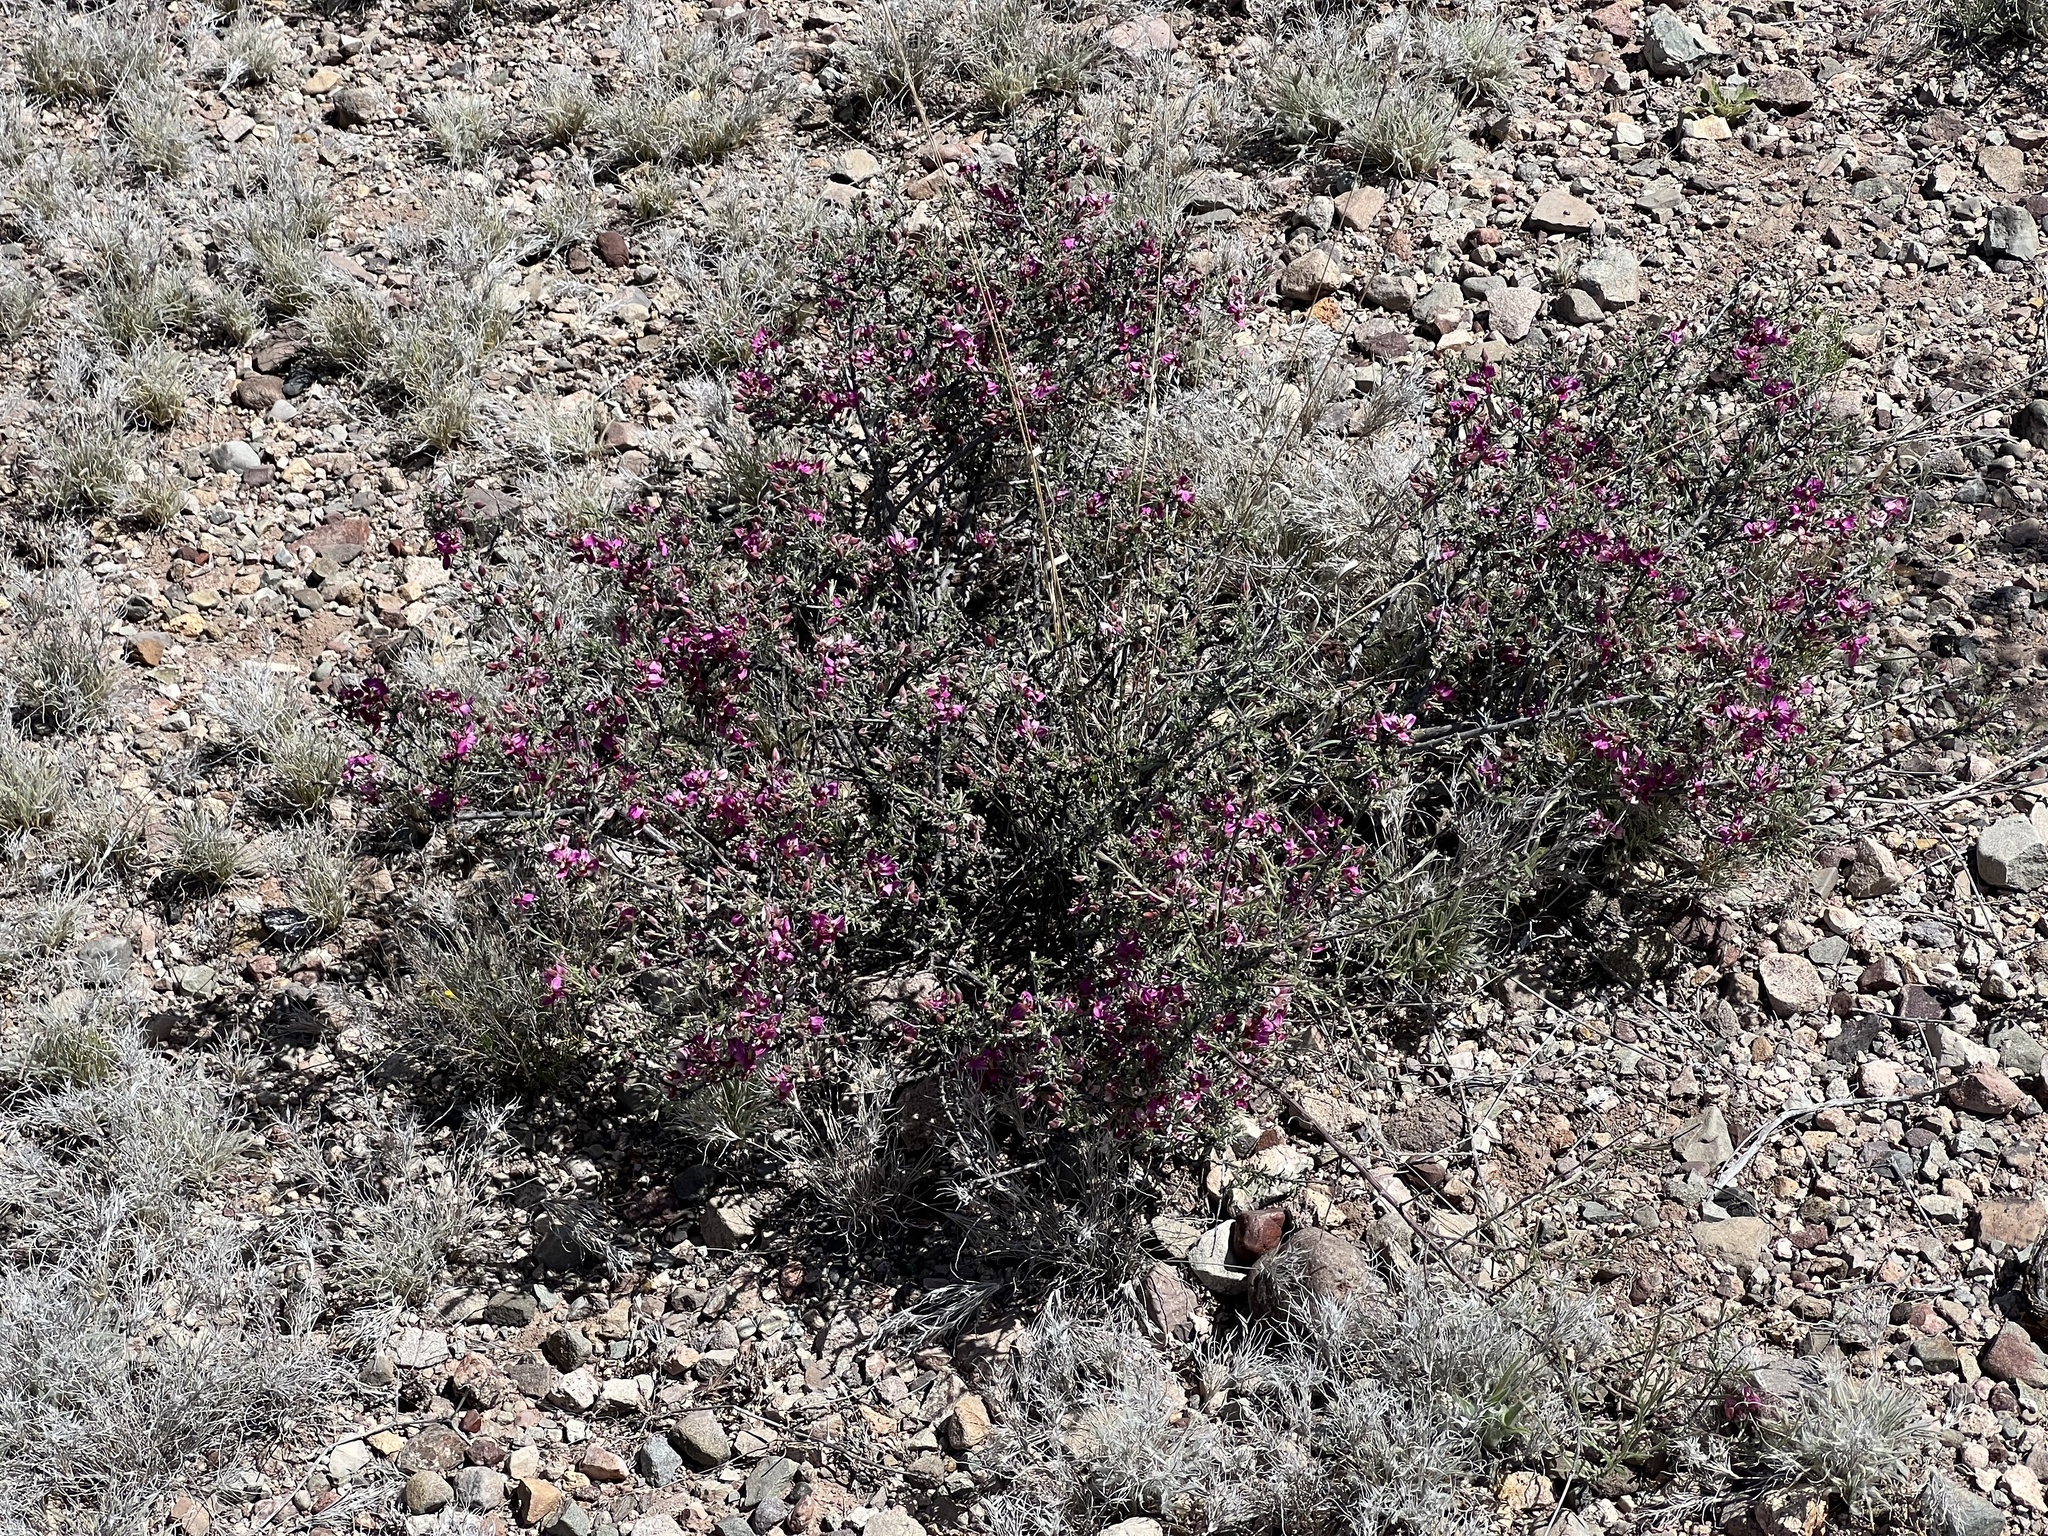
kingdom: Plantae
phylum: Tracheophyta
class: Magnoliopsida
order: Zygophyllales
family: Krameriaceae
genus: Krameria
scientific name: Krameria erecta
